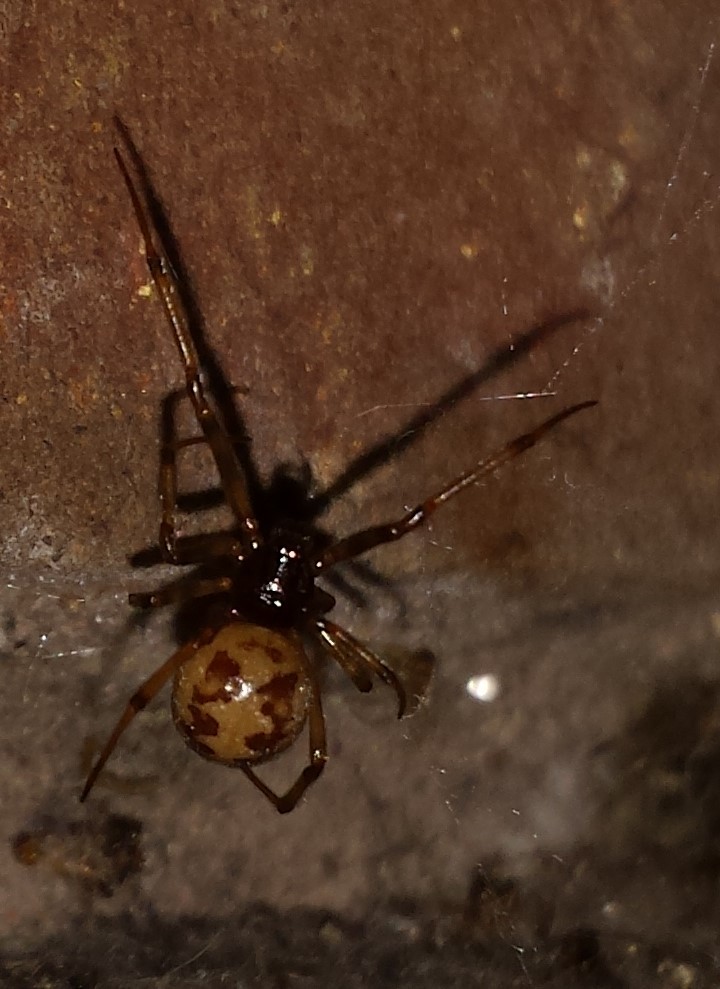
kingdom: Animalia
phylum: Arthropoda
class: Arachnida
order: Araneae
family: Theridiidae
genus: Steatoda
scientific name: Steatoda triangulosa
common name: Triangulate bud spider
